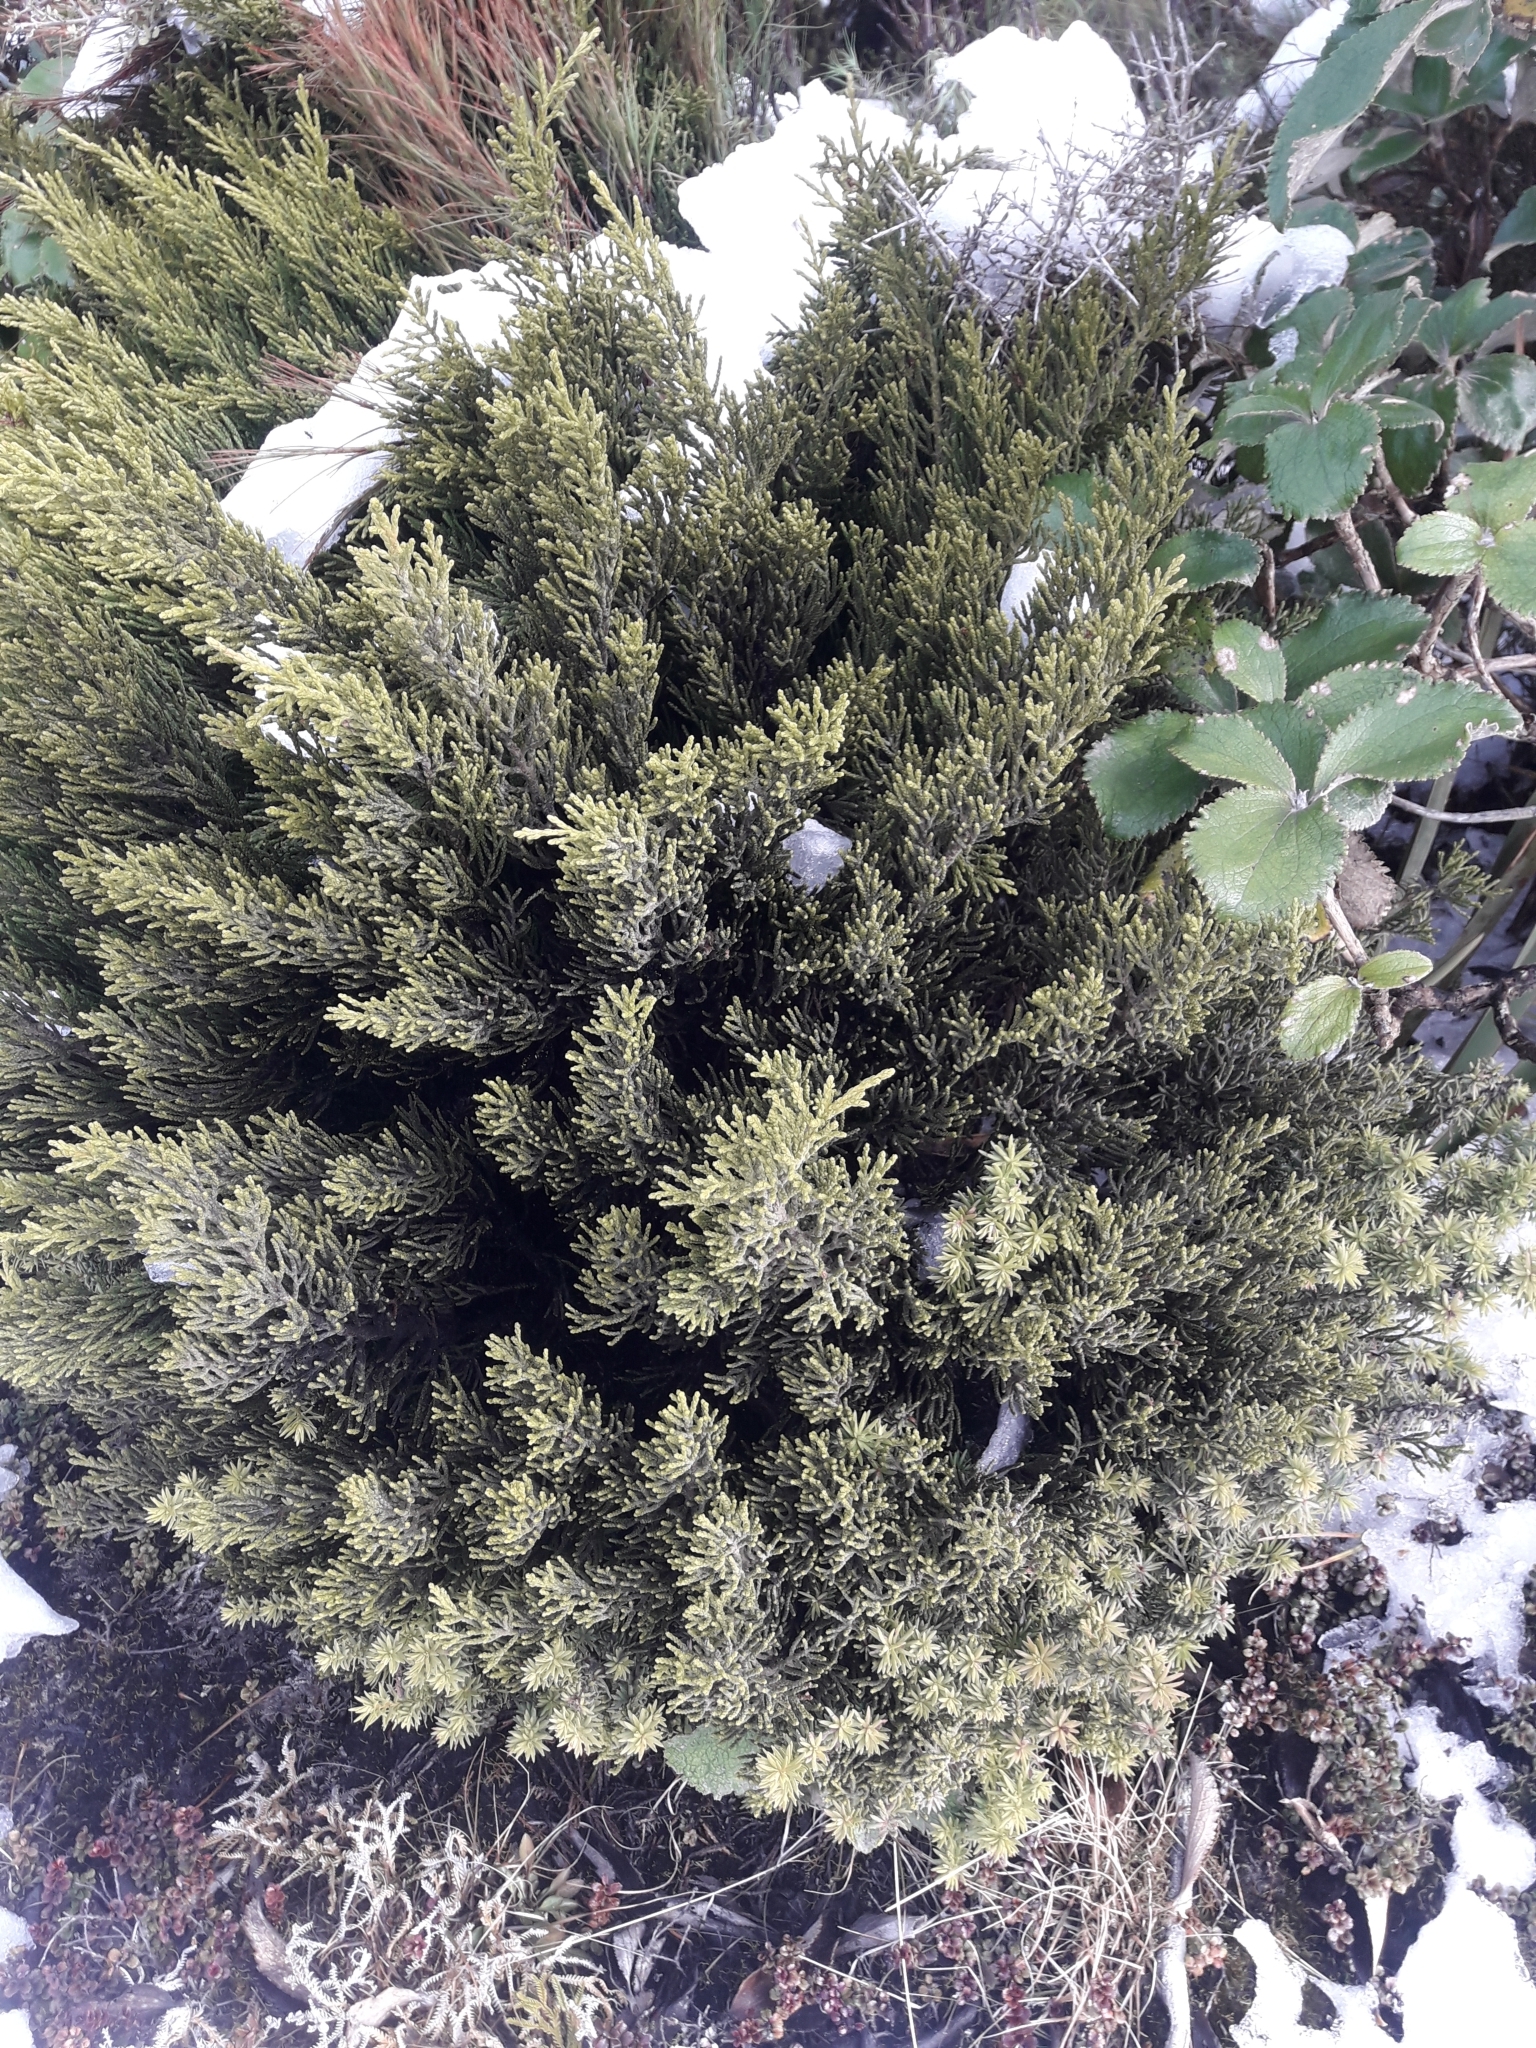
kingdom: Plantae
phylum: Tracheophyta
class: Pinopsida
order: Pinales
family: Podocarpaceae
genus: Halocarpus
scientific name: Halocarpus biformis
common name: Alpine tarwood
